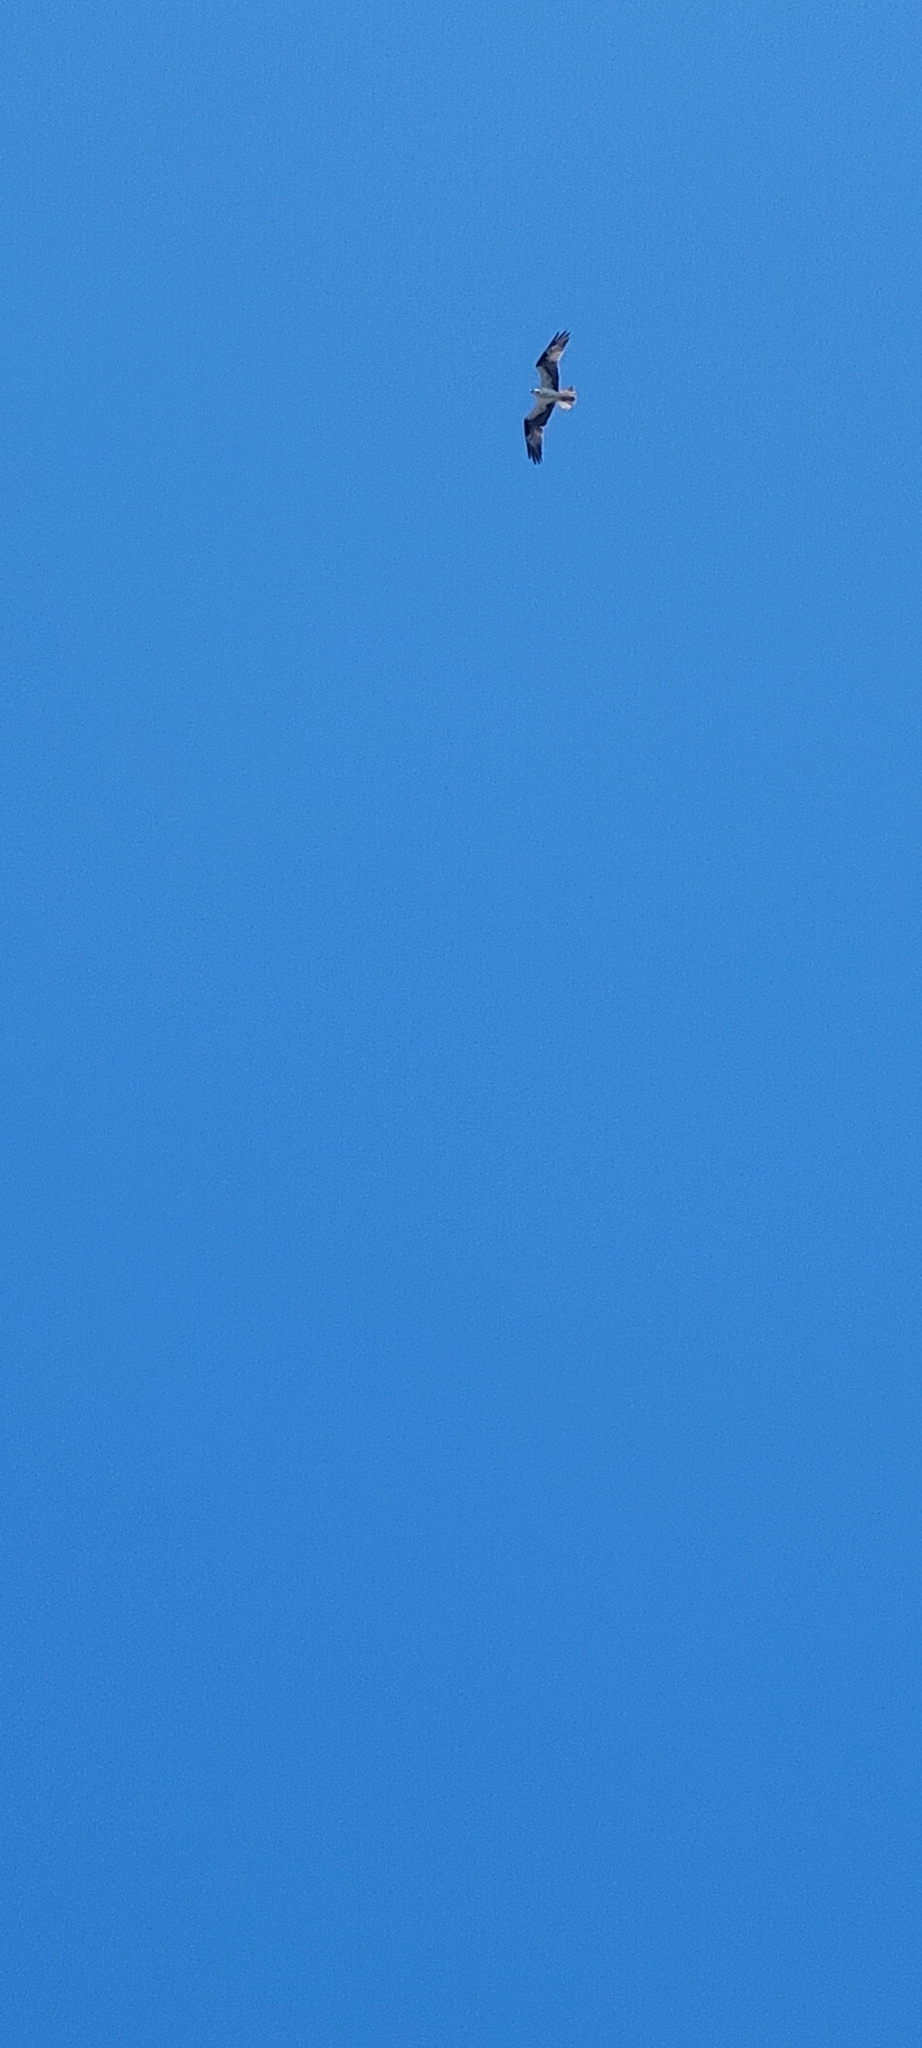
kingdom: Animalia
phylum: Chordata
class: Aves
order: Accipitriformes
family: Pandionidae
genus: Pandion
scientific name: Pandion haliaetus
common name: Osprey
